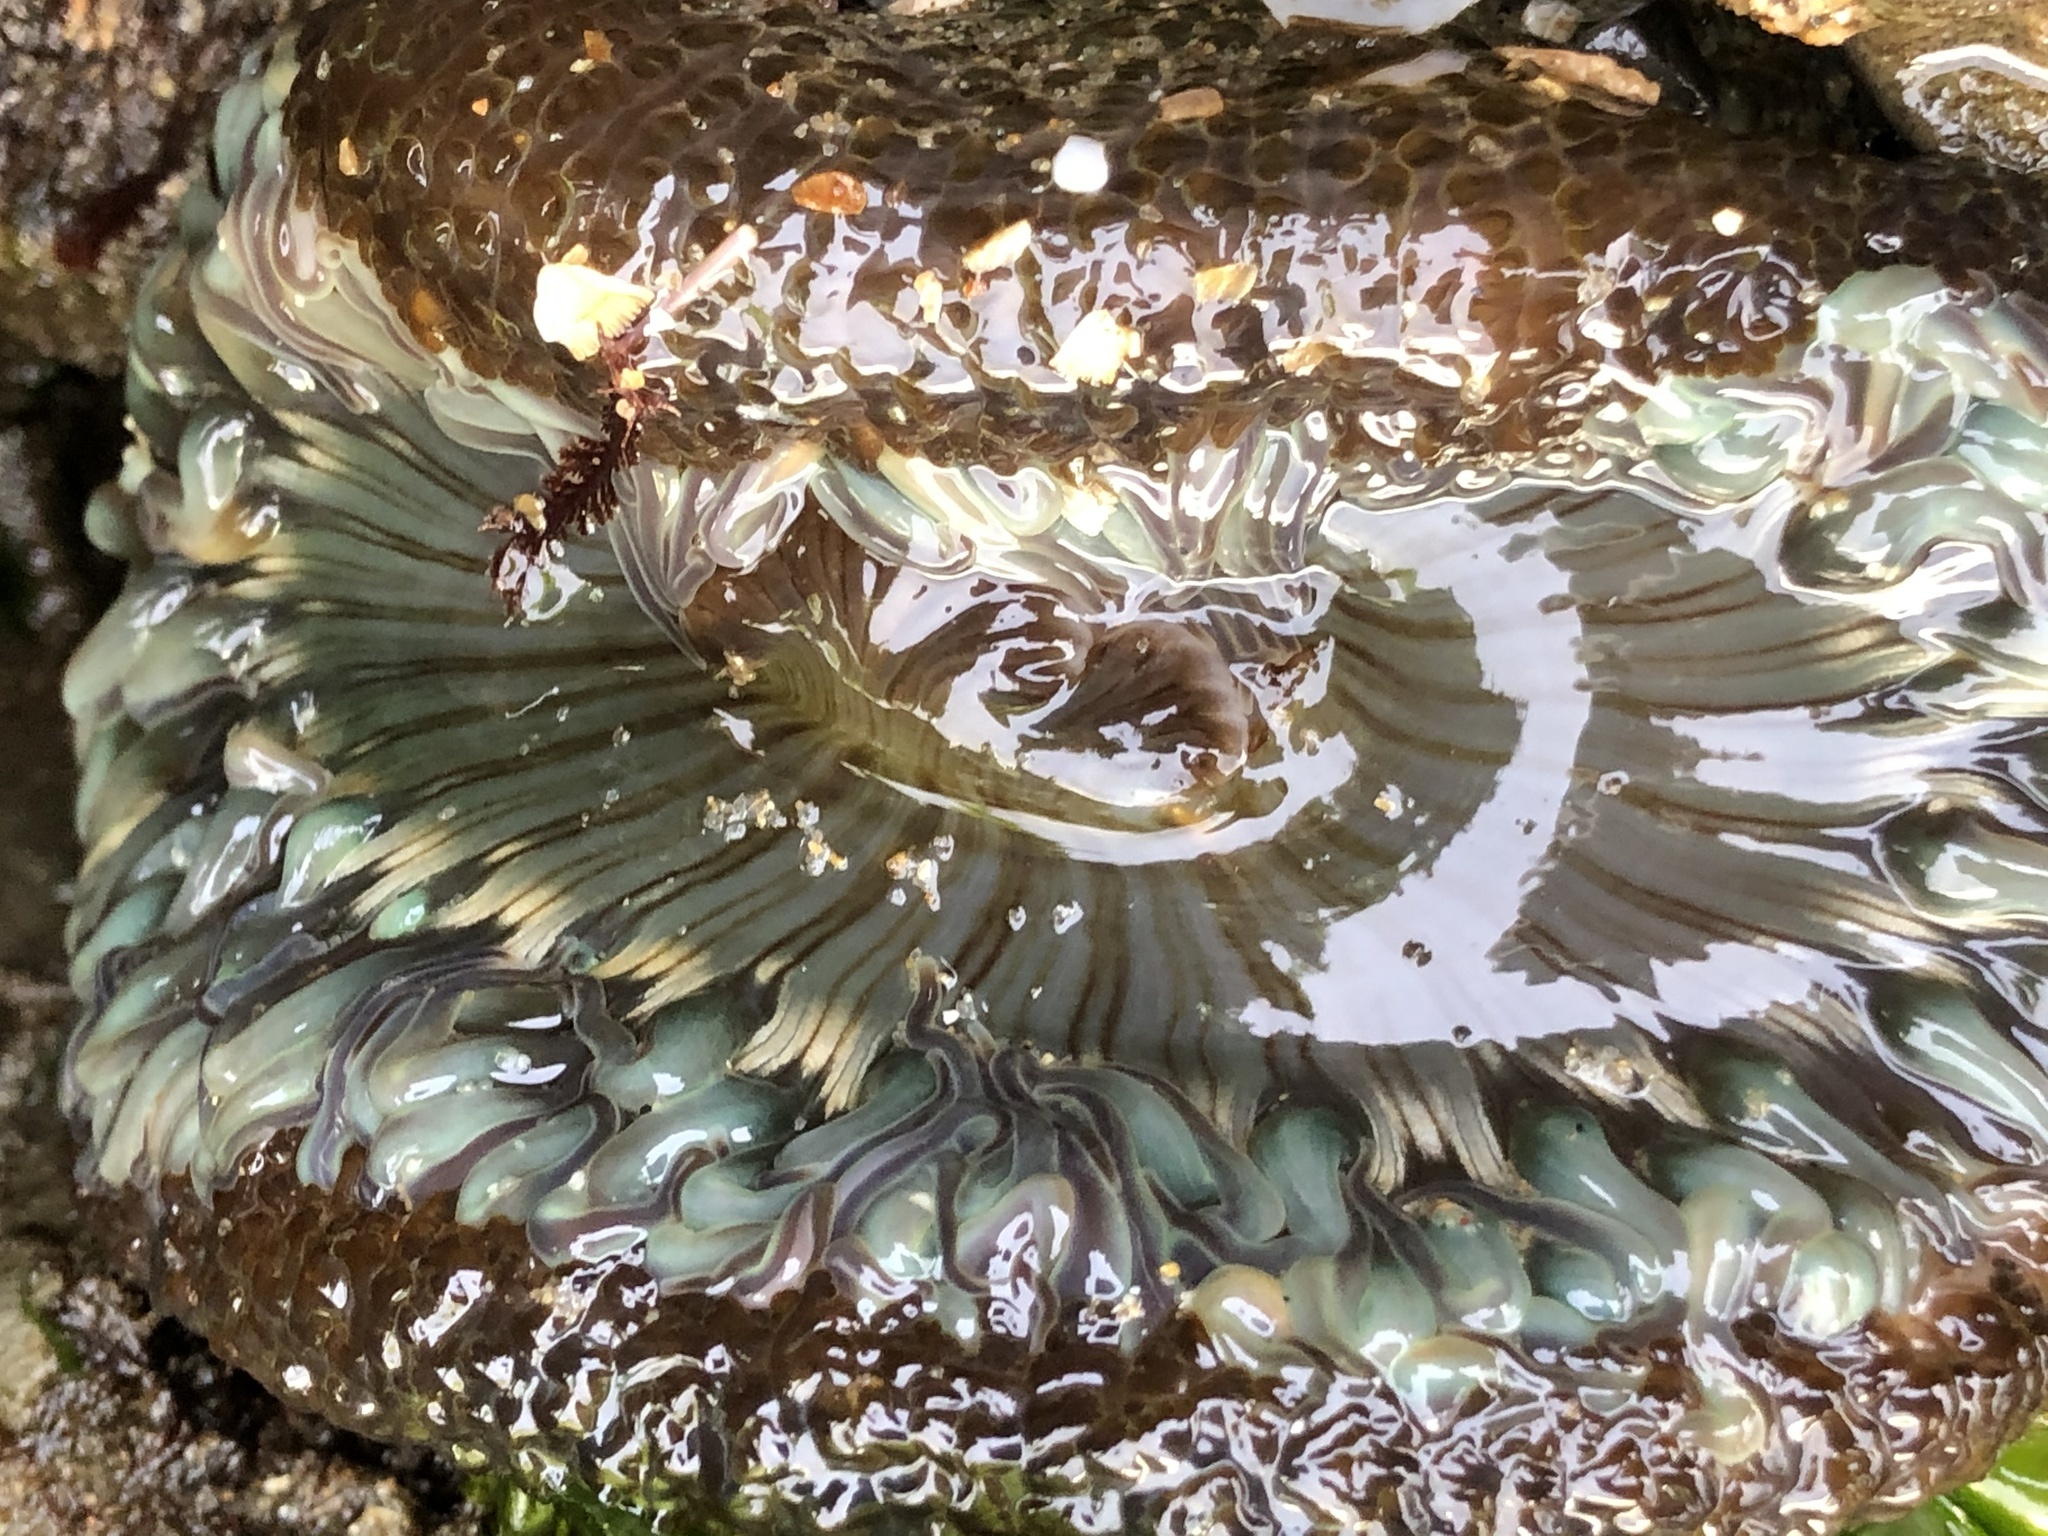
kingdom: Animalia
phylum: Cnidaria
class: Anthozoa
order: Actiniaria
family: Actiniidae
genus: Anthopleura
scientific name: Anthopleura sola
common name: Sun anemone
